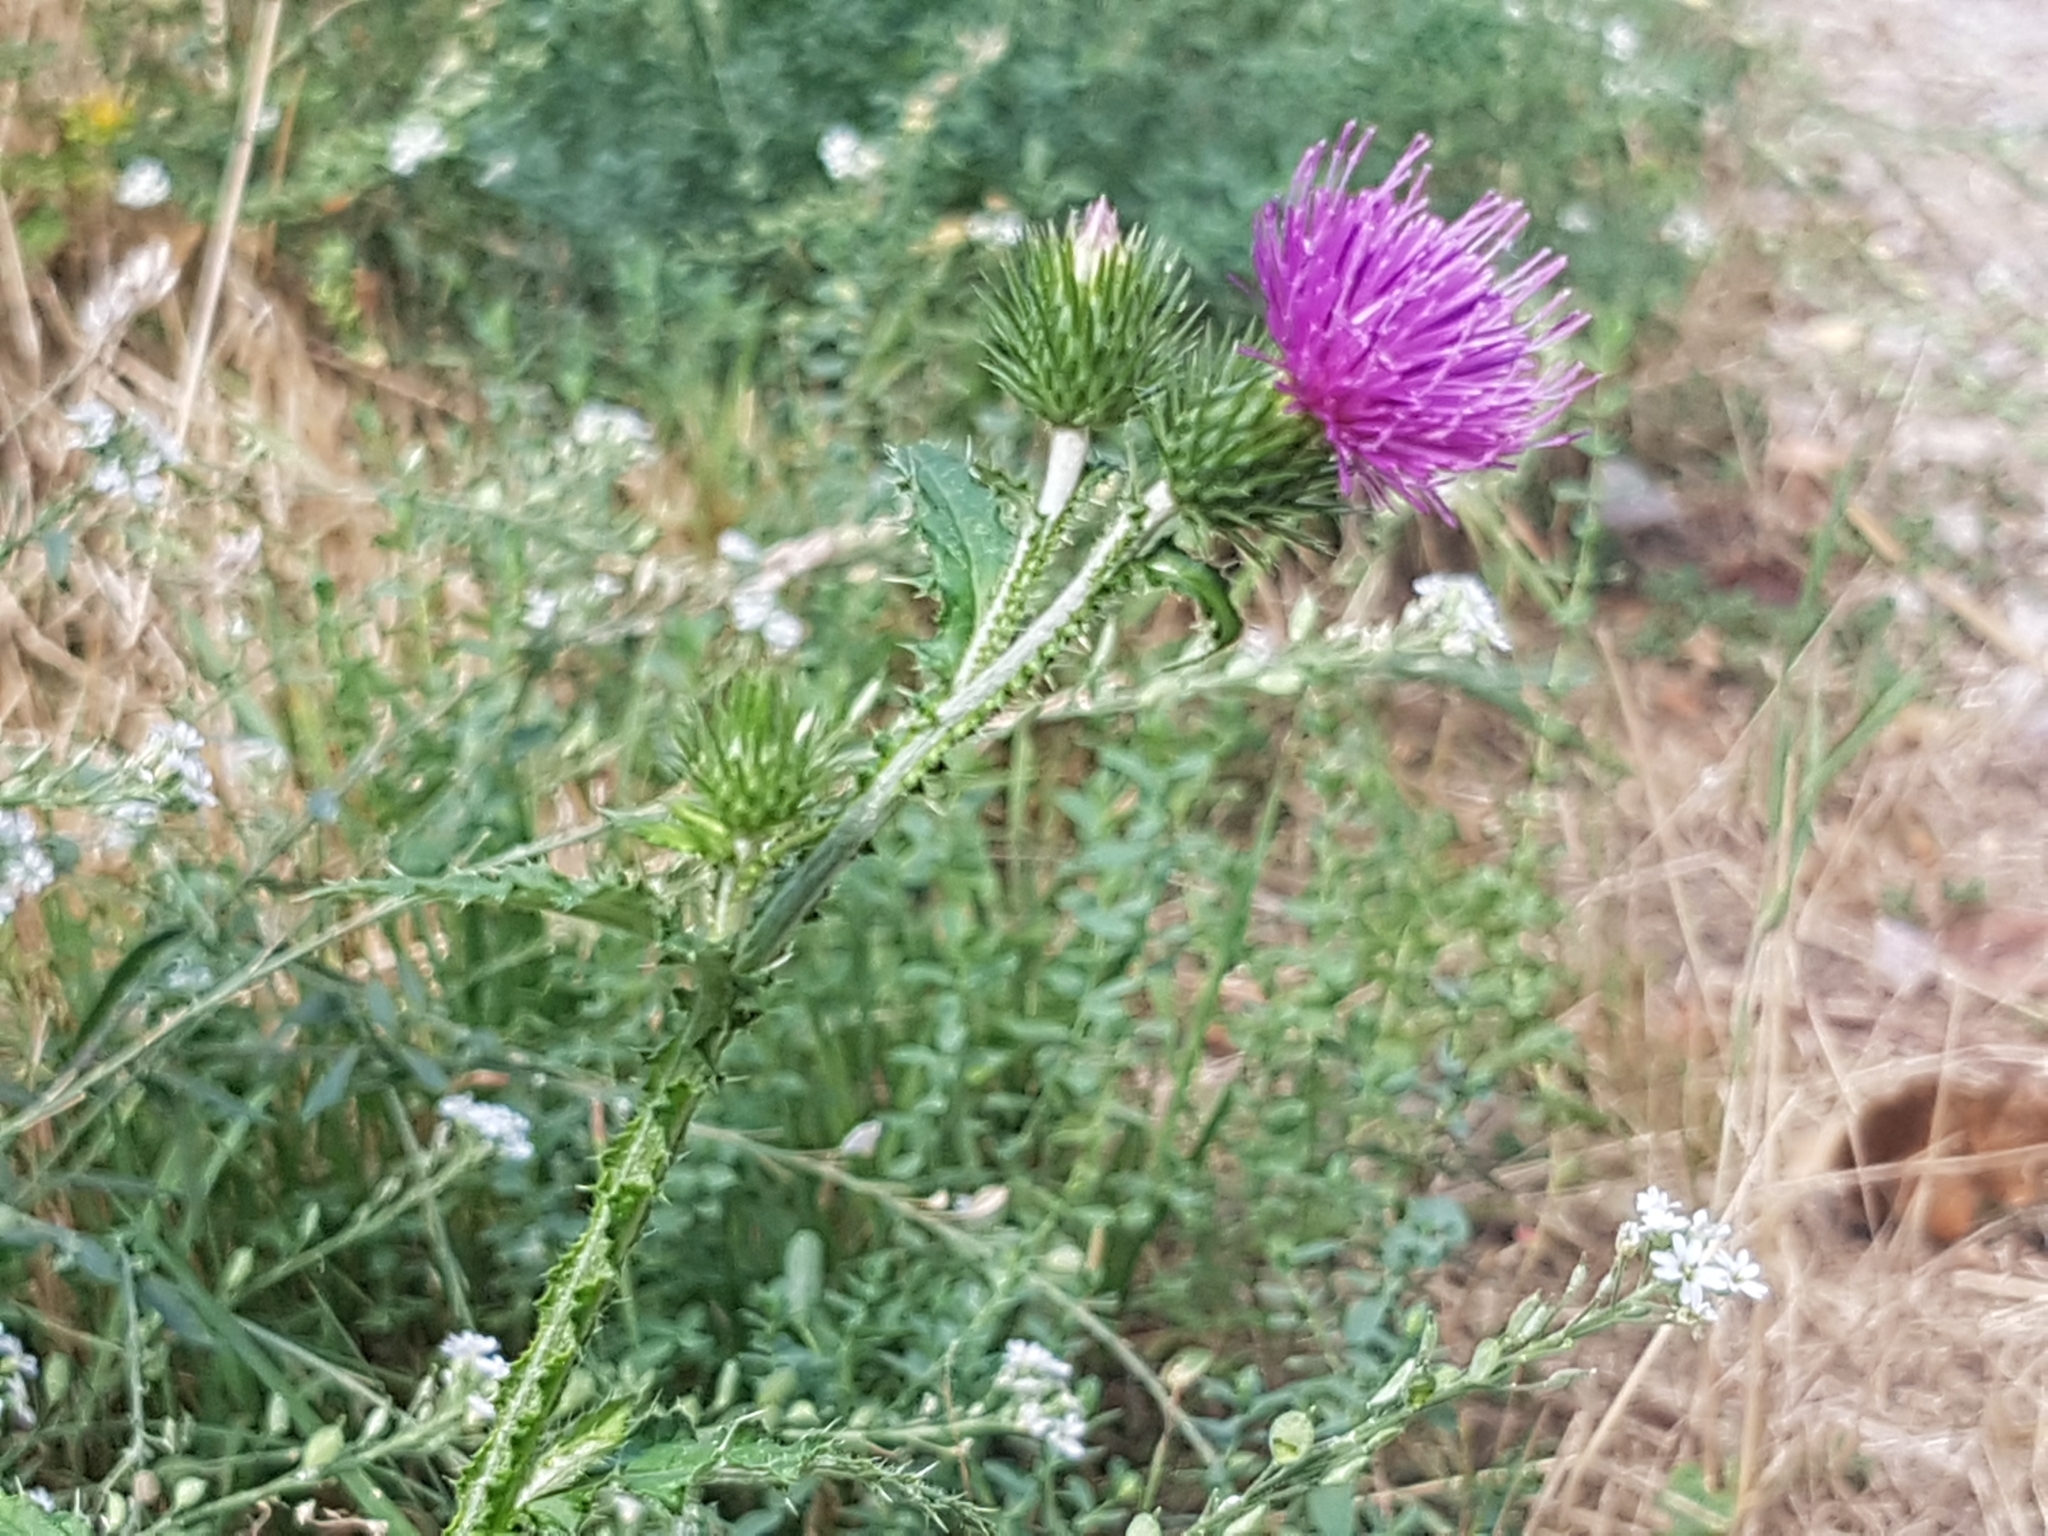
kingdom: Plantae
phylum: Tracheophyta
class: Magnoliopsida
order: Asterales
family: Asteraceae
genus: Carduus
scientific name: Carduus acanthoides
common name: Plumeless thistle
